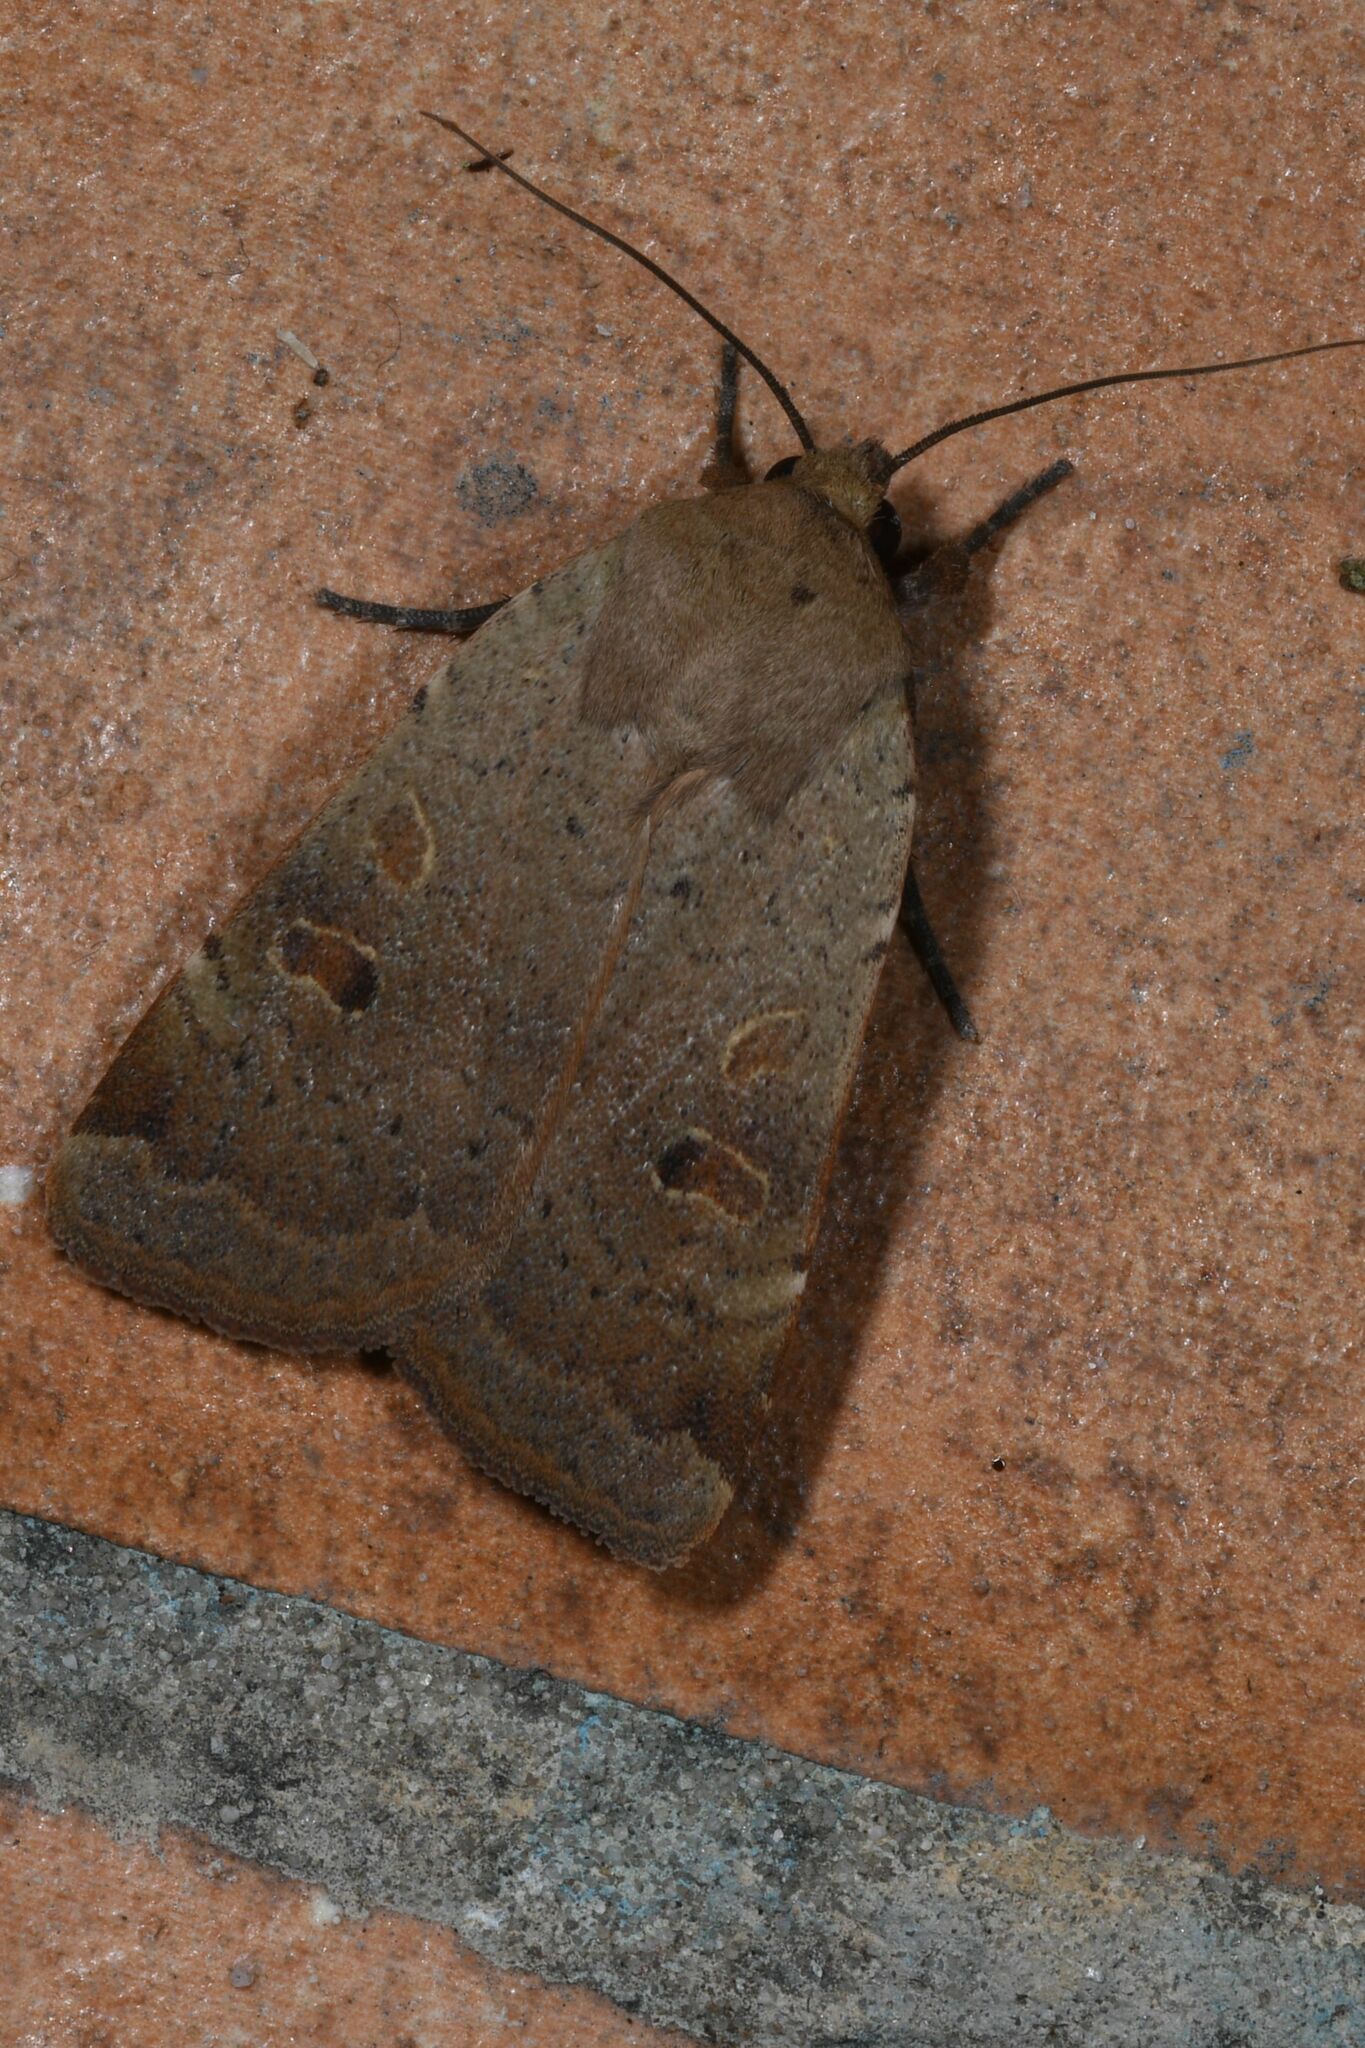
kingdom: Animalia
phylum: Arthropoda
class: Insecta
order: Lepidoptera
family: Noctuidae
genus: Noctua
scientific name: Noctua comes
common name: Lesser yellow underwing
